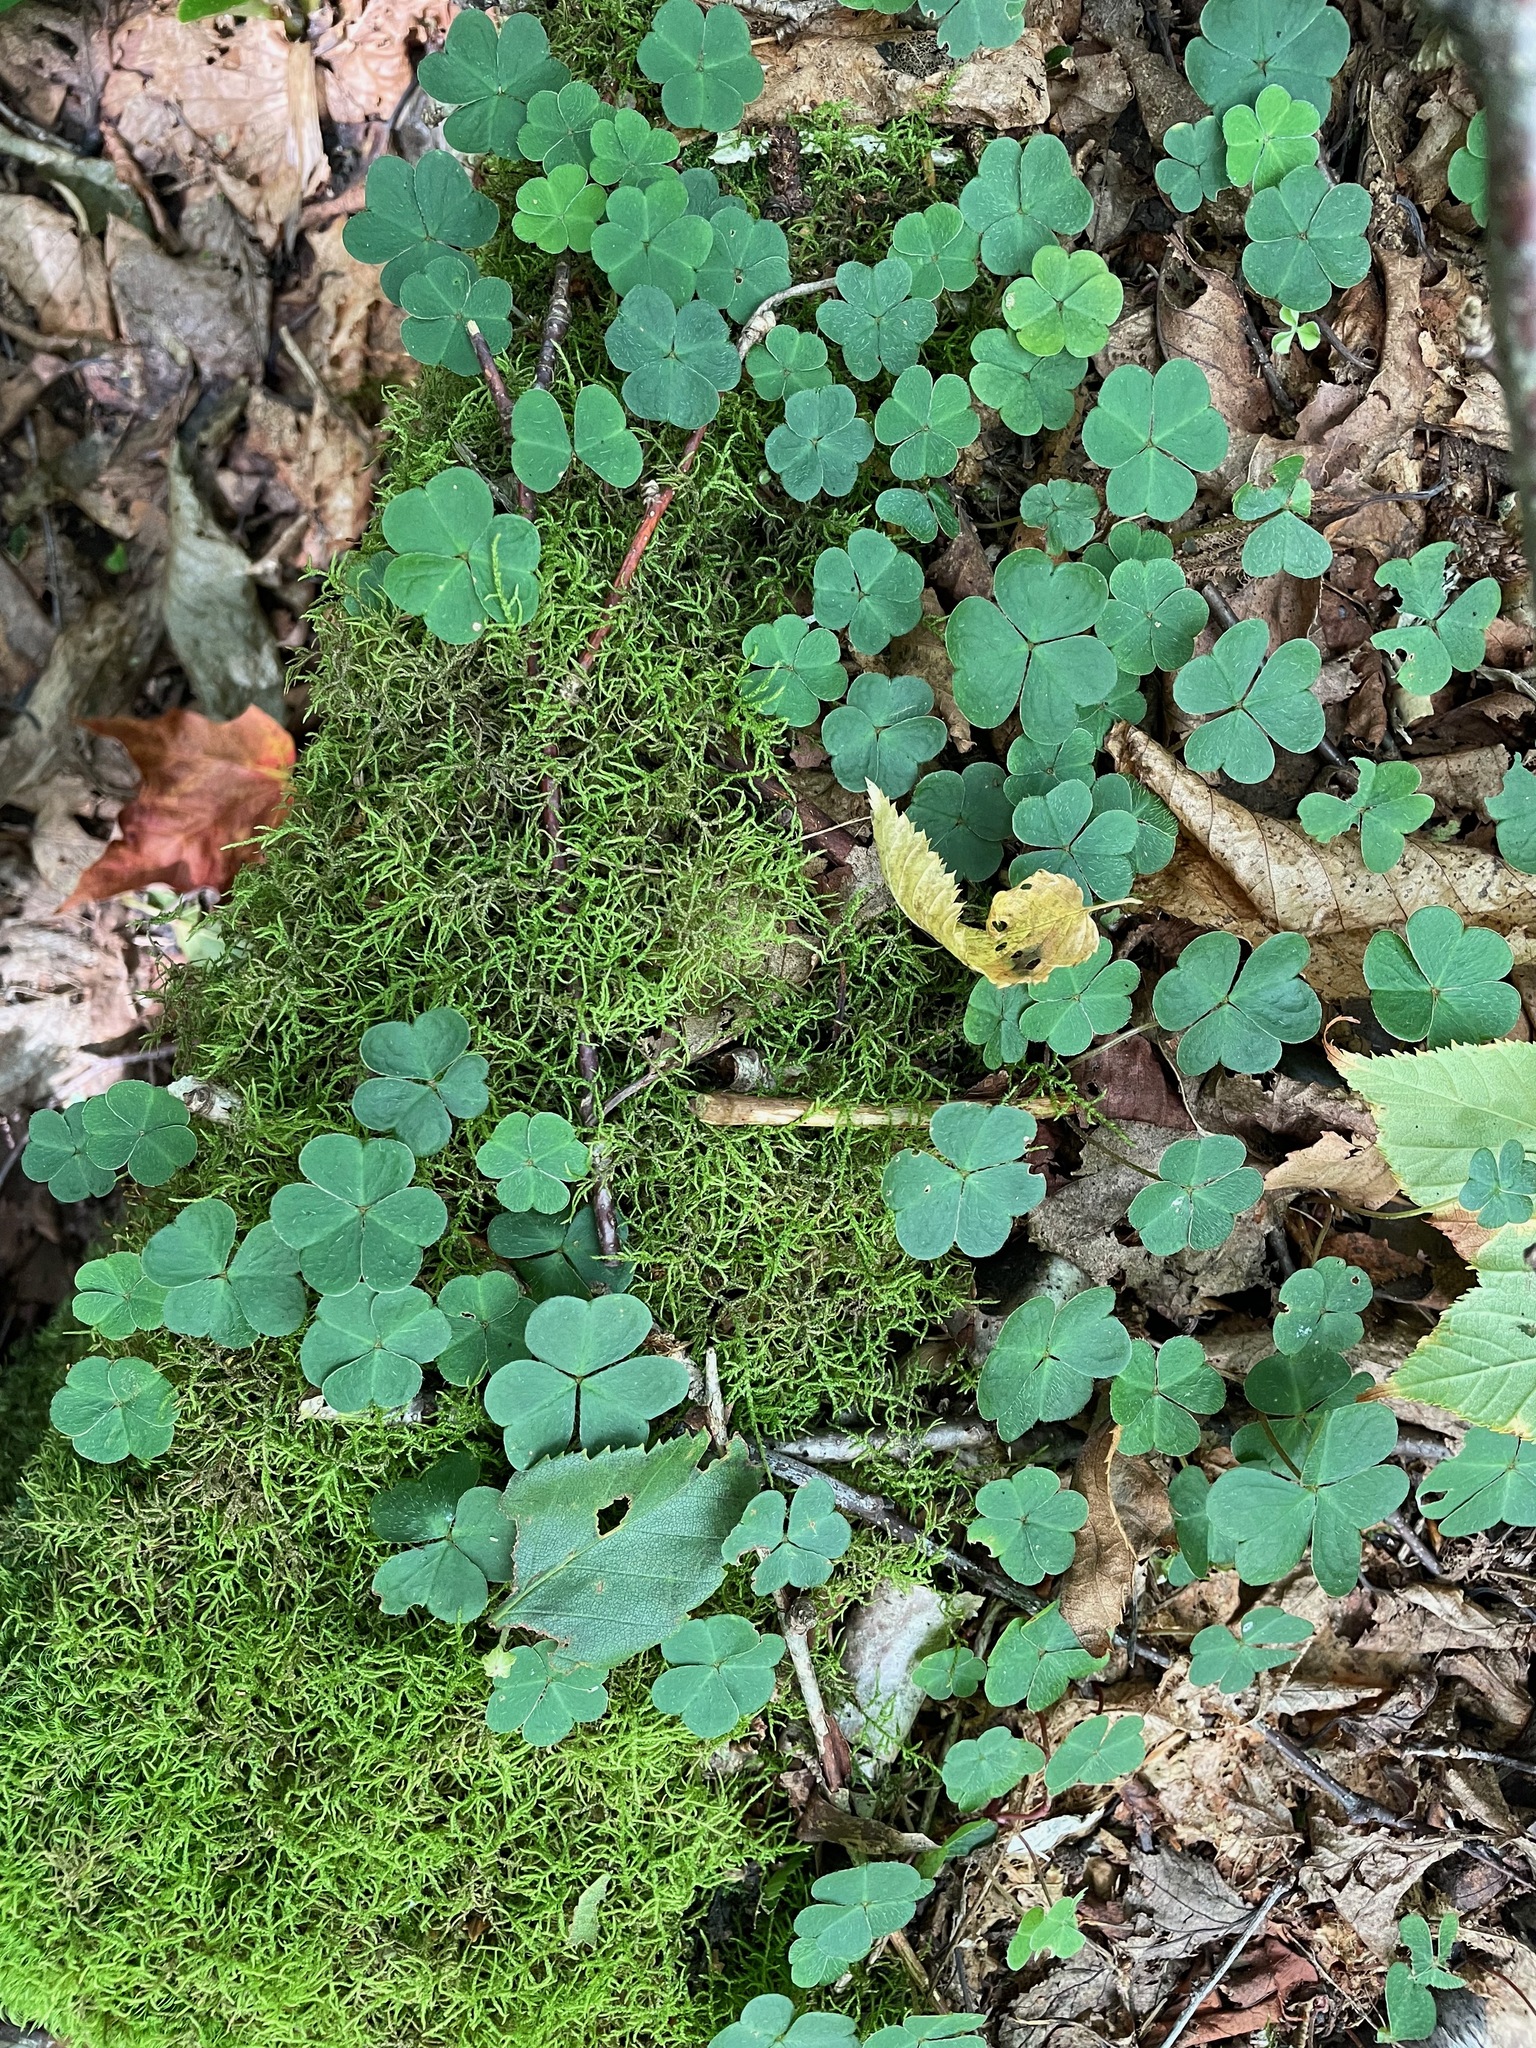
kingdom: Plantae
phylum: Tracheophyta
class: Magnoliopsida
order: Oxalidales
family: Oxalidaceae
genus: Oxalis
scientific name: Oxalis montana
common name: American wood-sorrel
